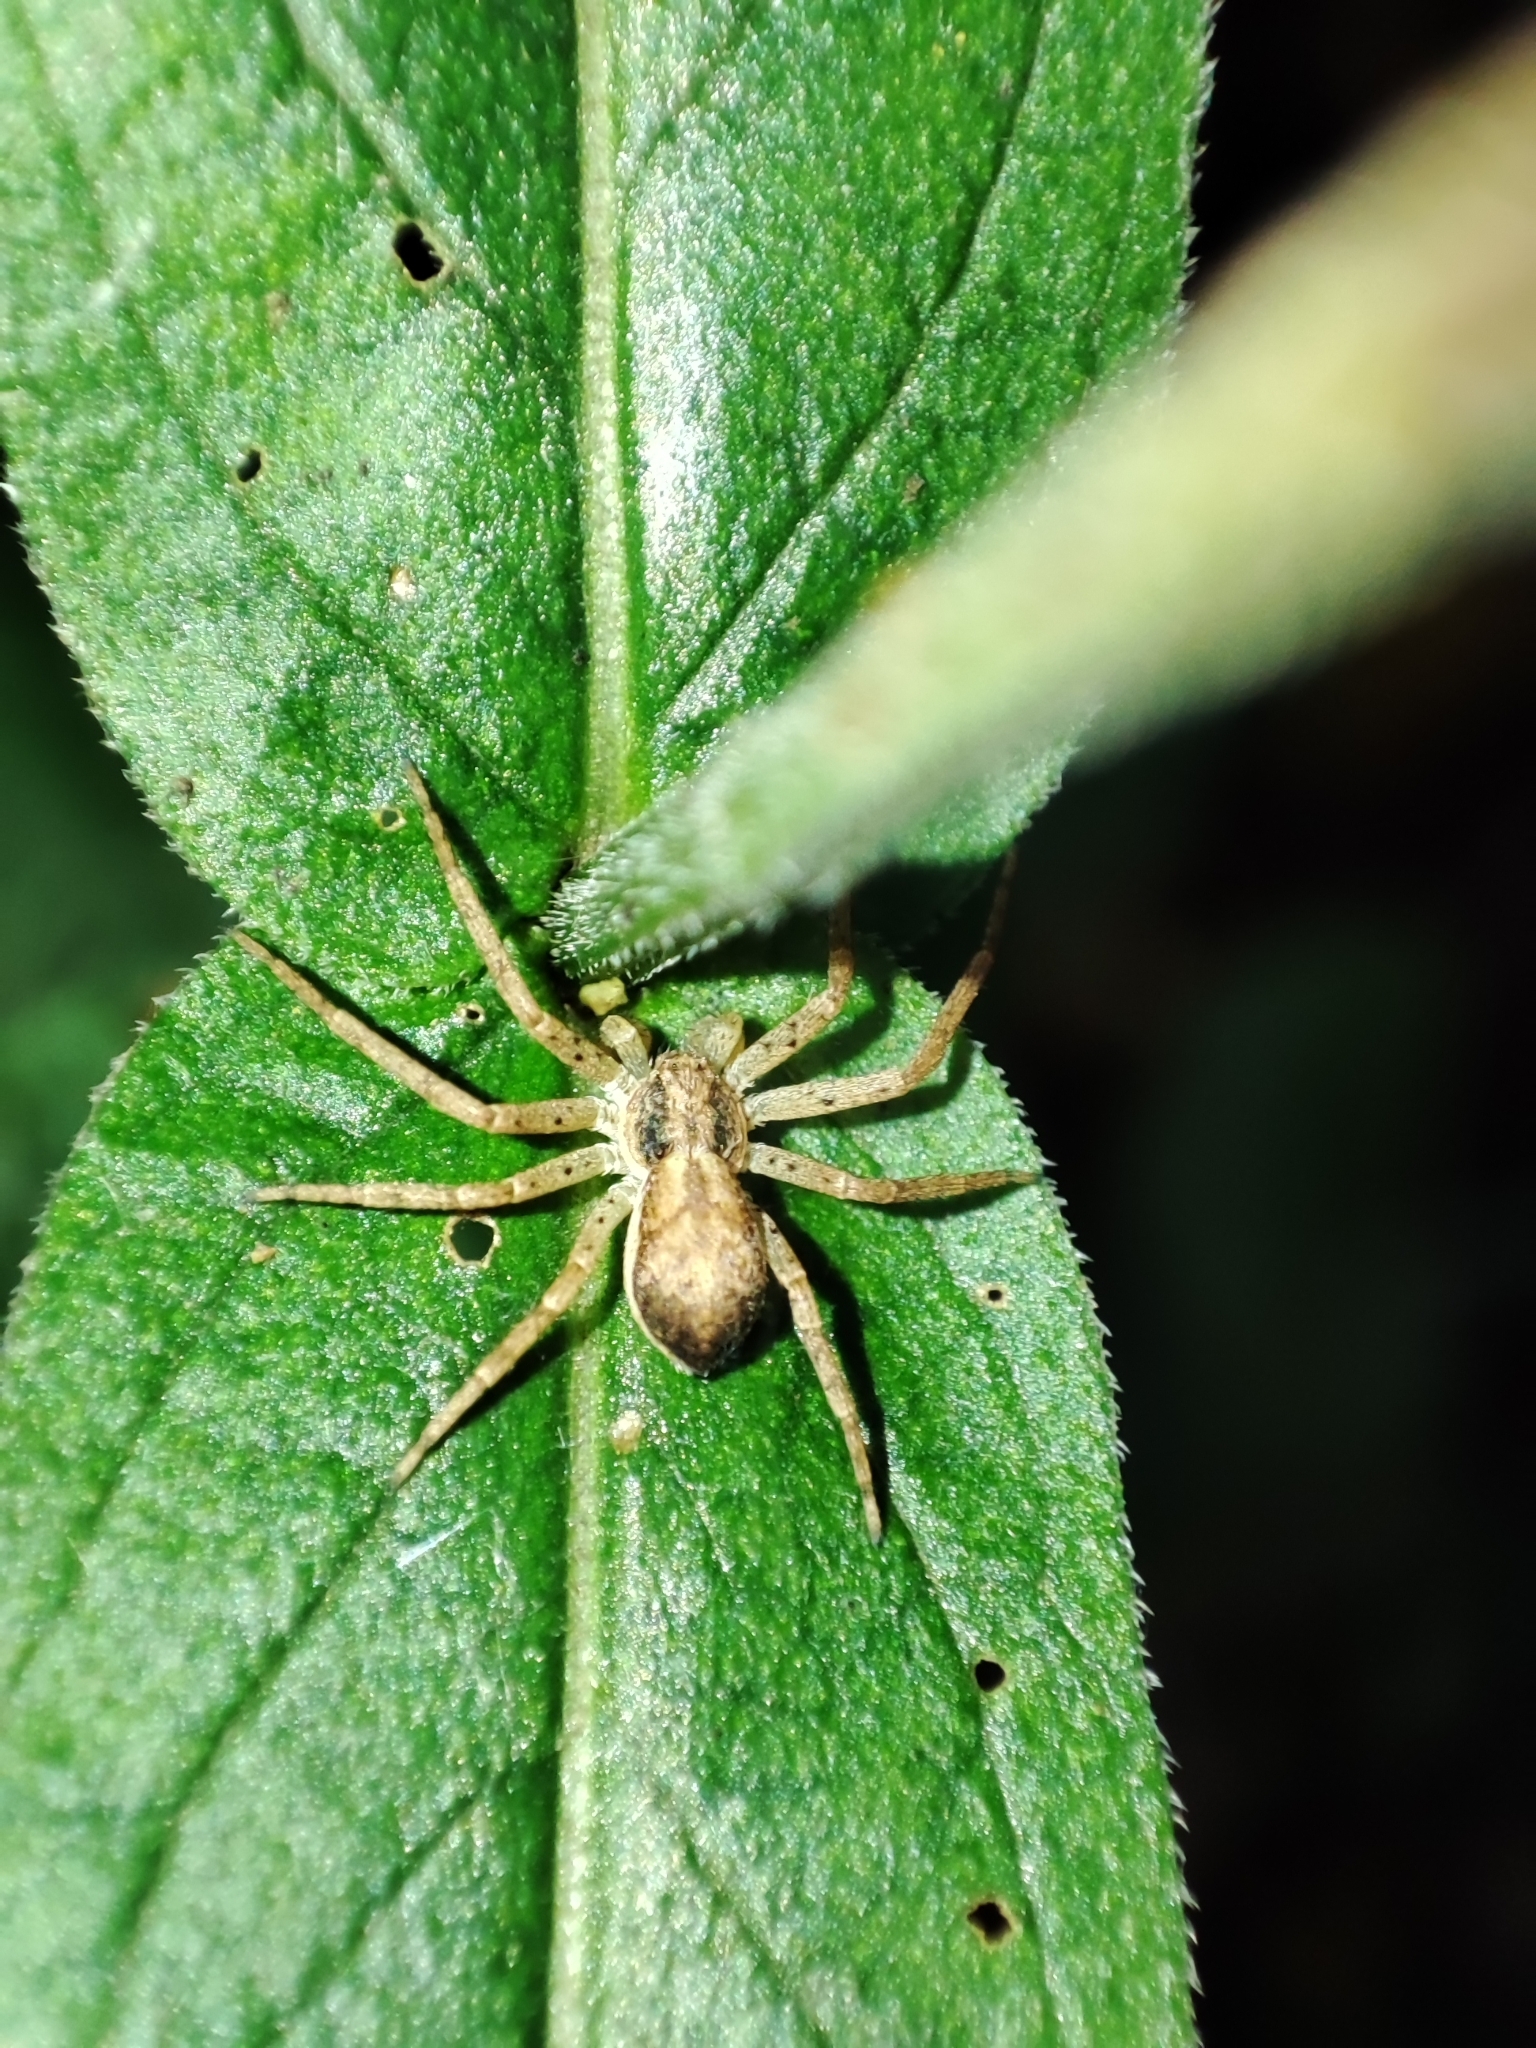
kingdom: Animalia
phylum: Arthropoda
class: Arachnida
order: Araneae
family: Philodromidae
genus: Philodromus
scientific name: Philodromus dispar
